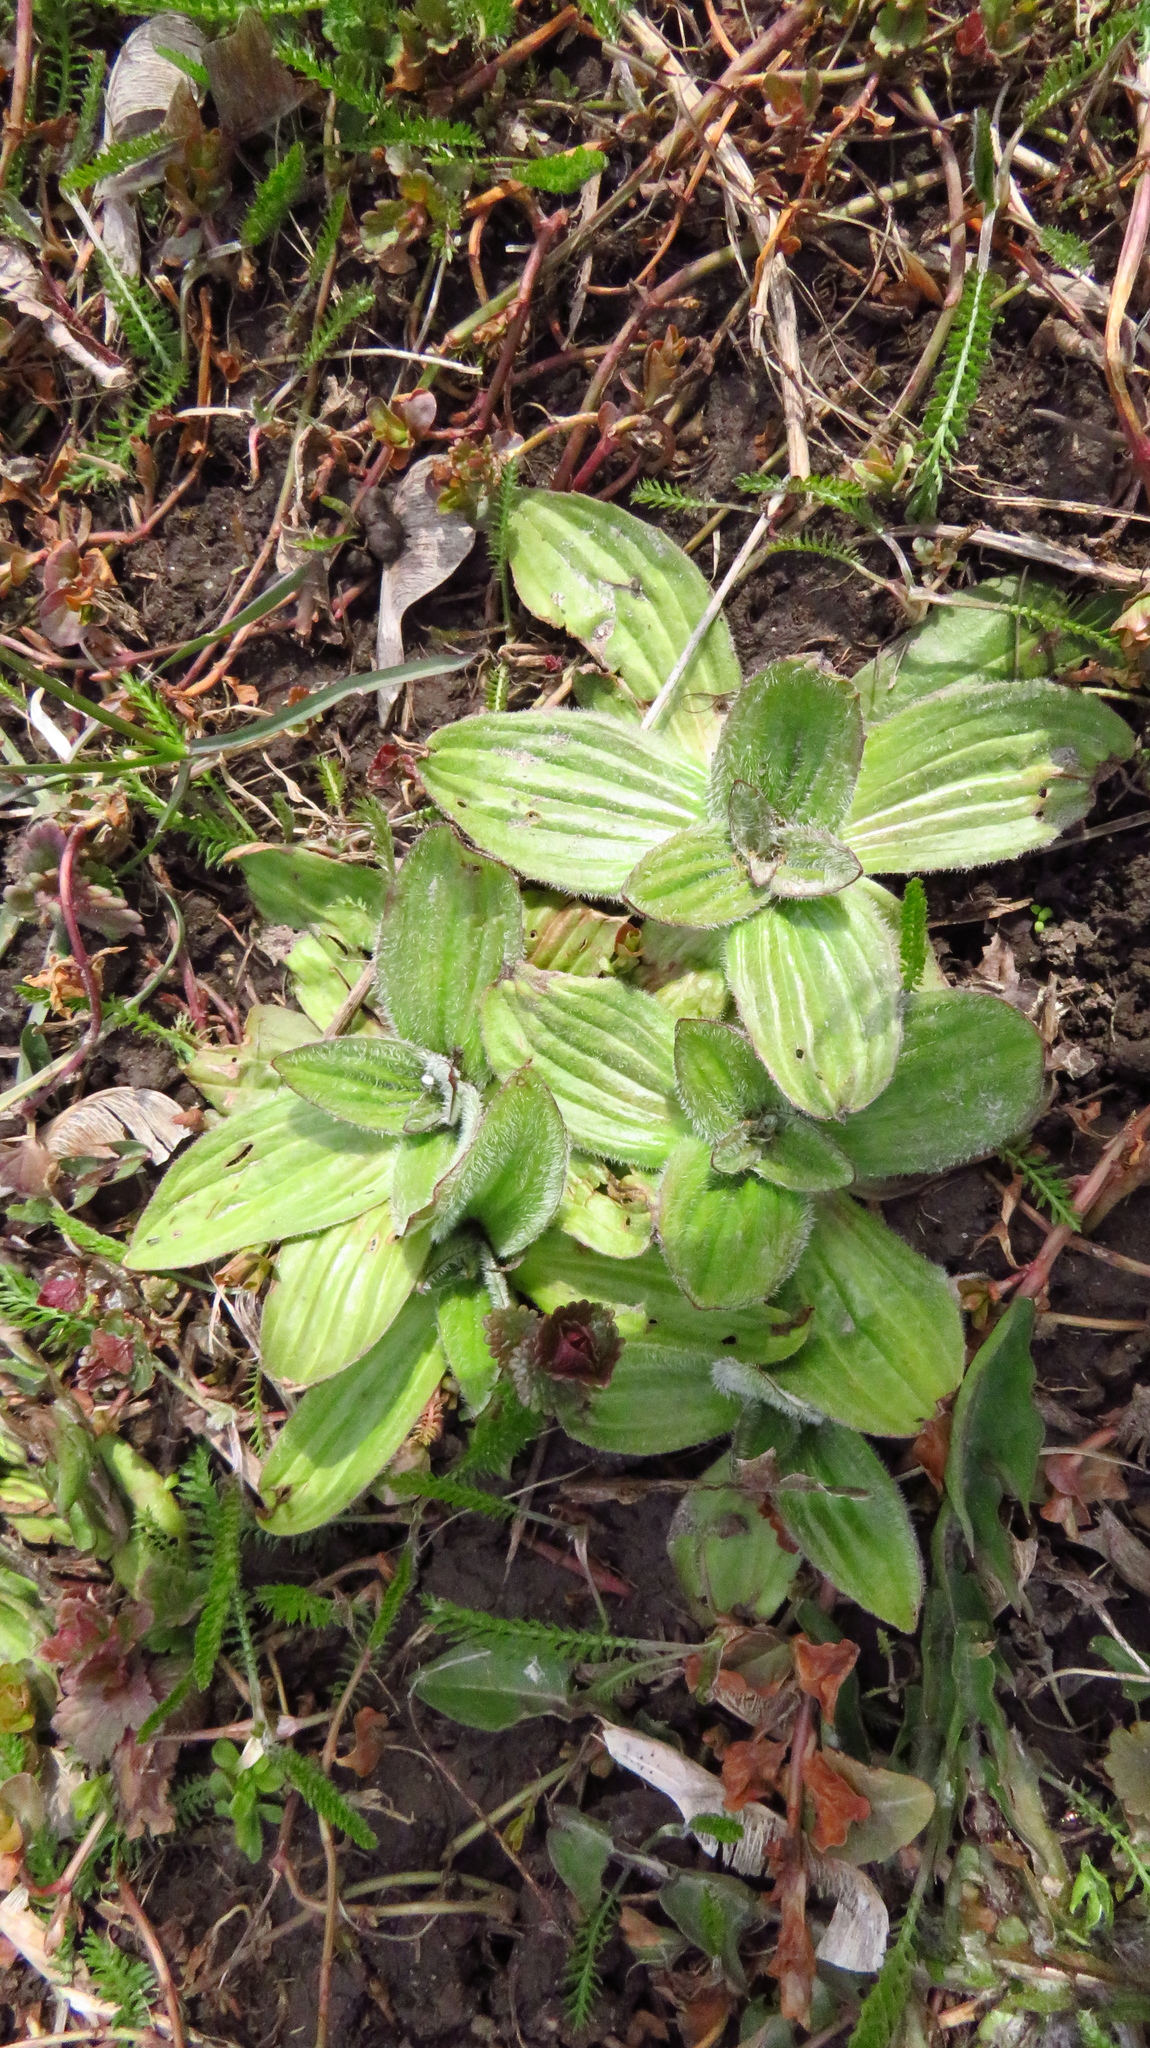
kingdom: Plantae
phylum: Tracheophyta
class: Magnoliopsida
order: Lamiales
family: Plantaginaceae
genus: Plantago
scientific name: Plantago media
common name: Hoary plantain
